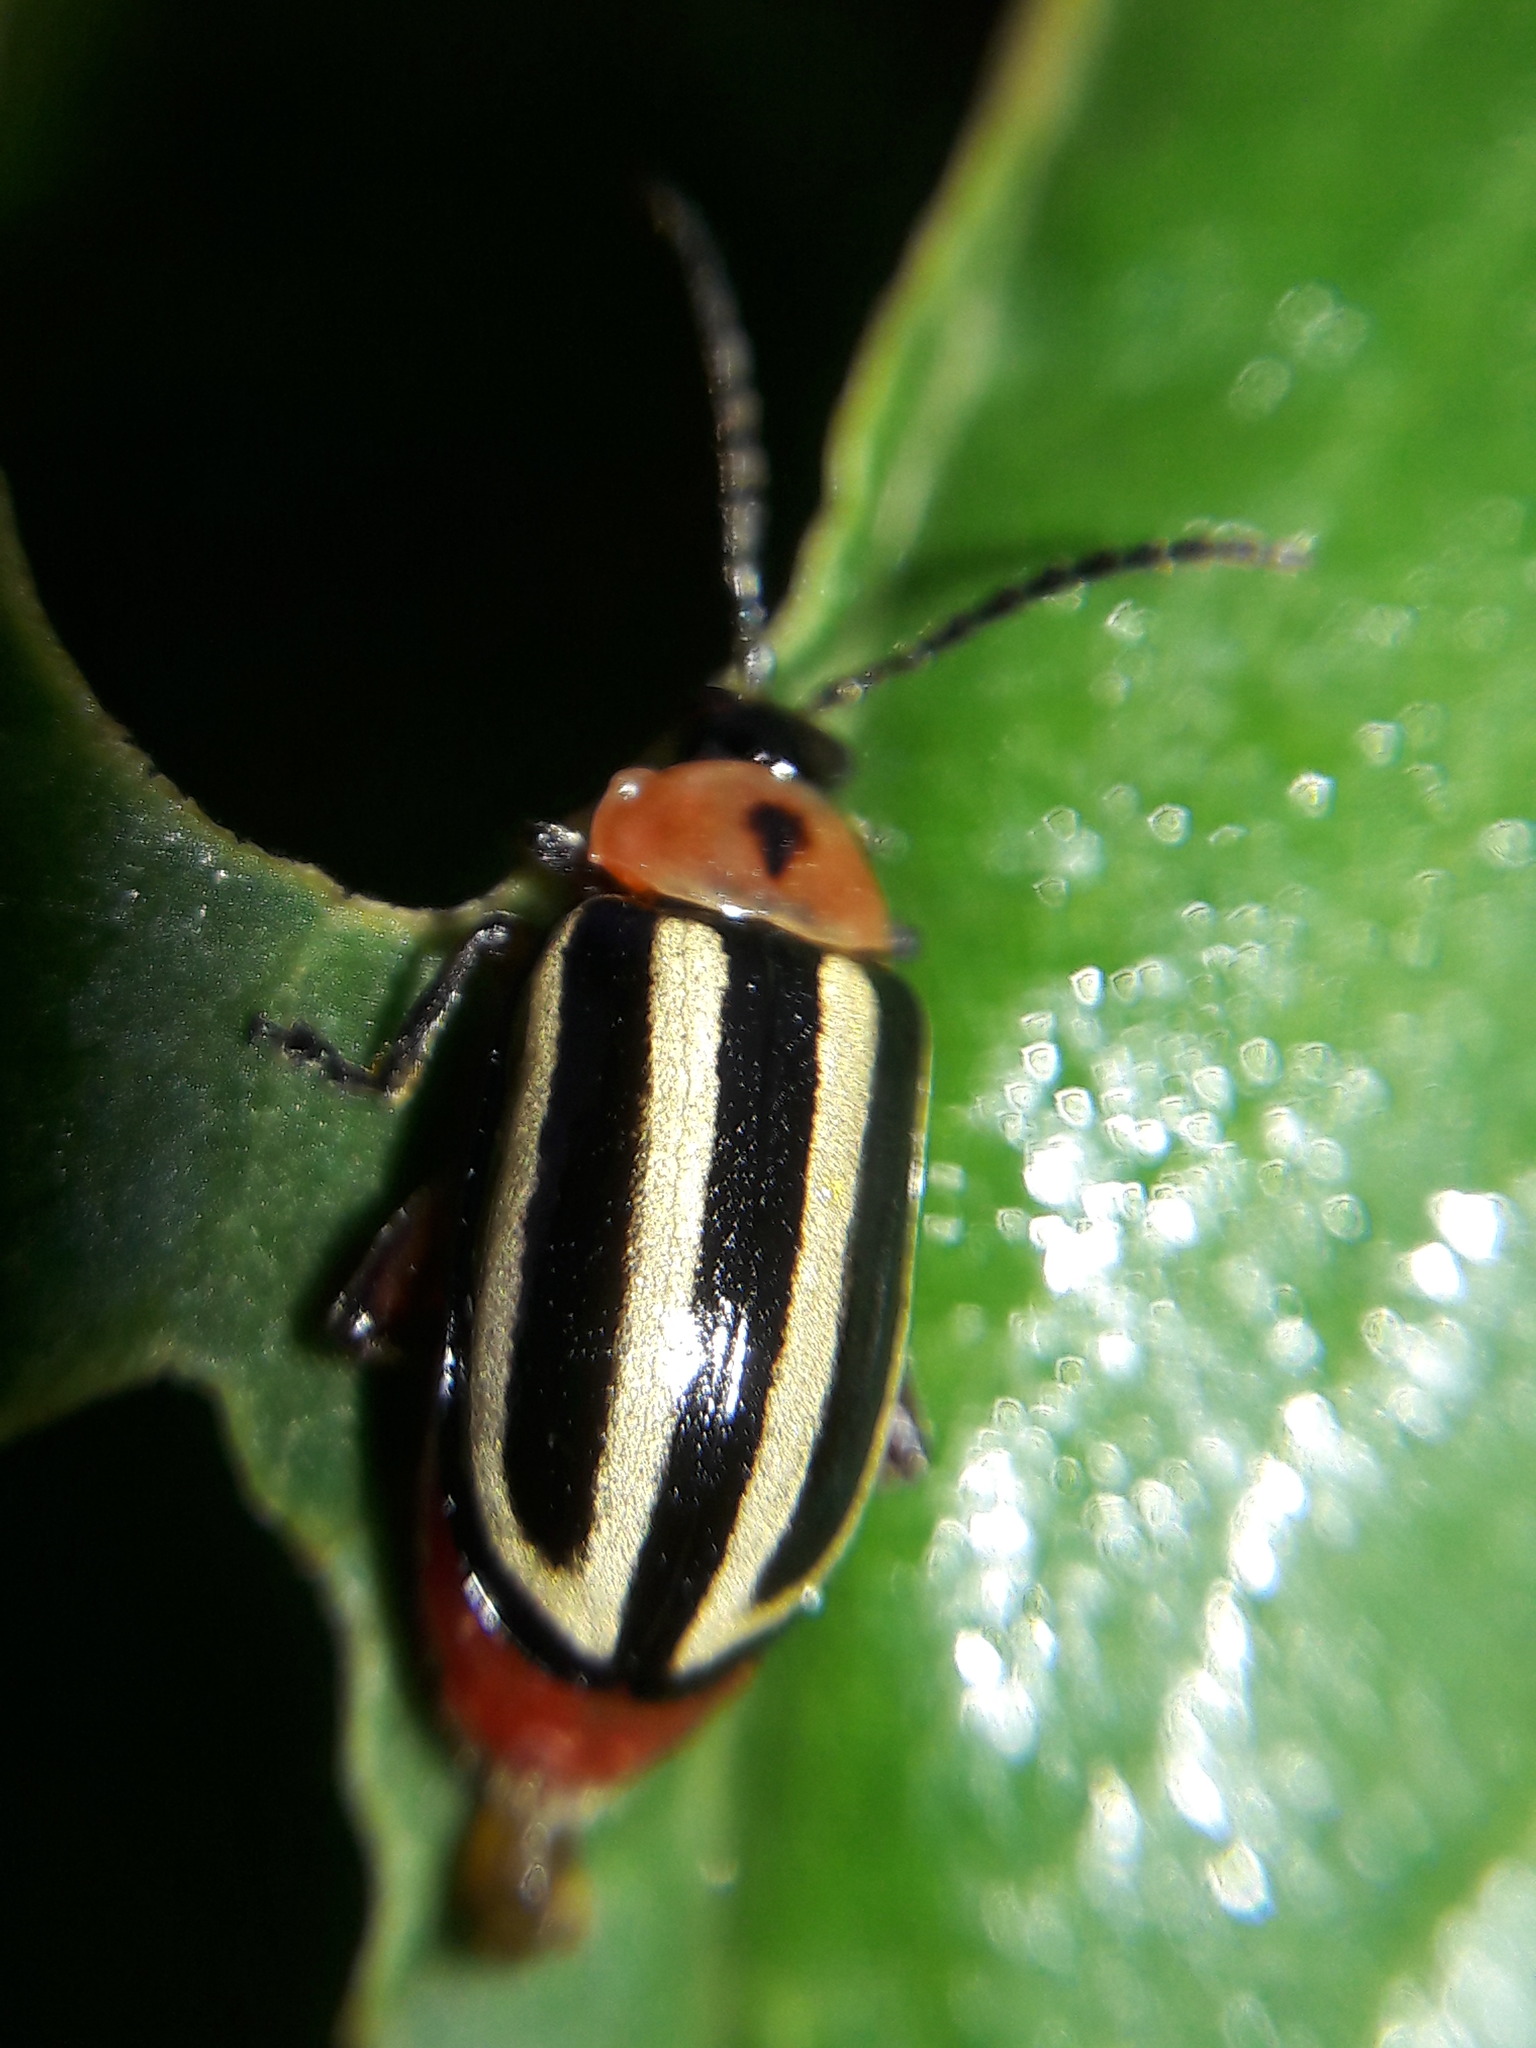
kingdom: Animalia
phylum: Arthropoda
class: Insecta
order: Coleoptera
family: Chrysomelidae
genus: Disonycha
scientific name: Disonycha glabrata
